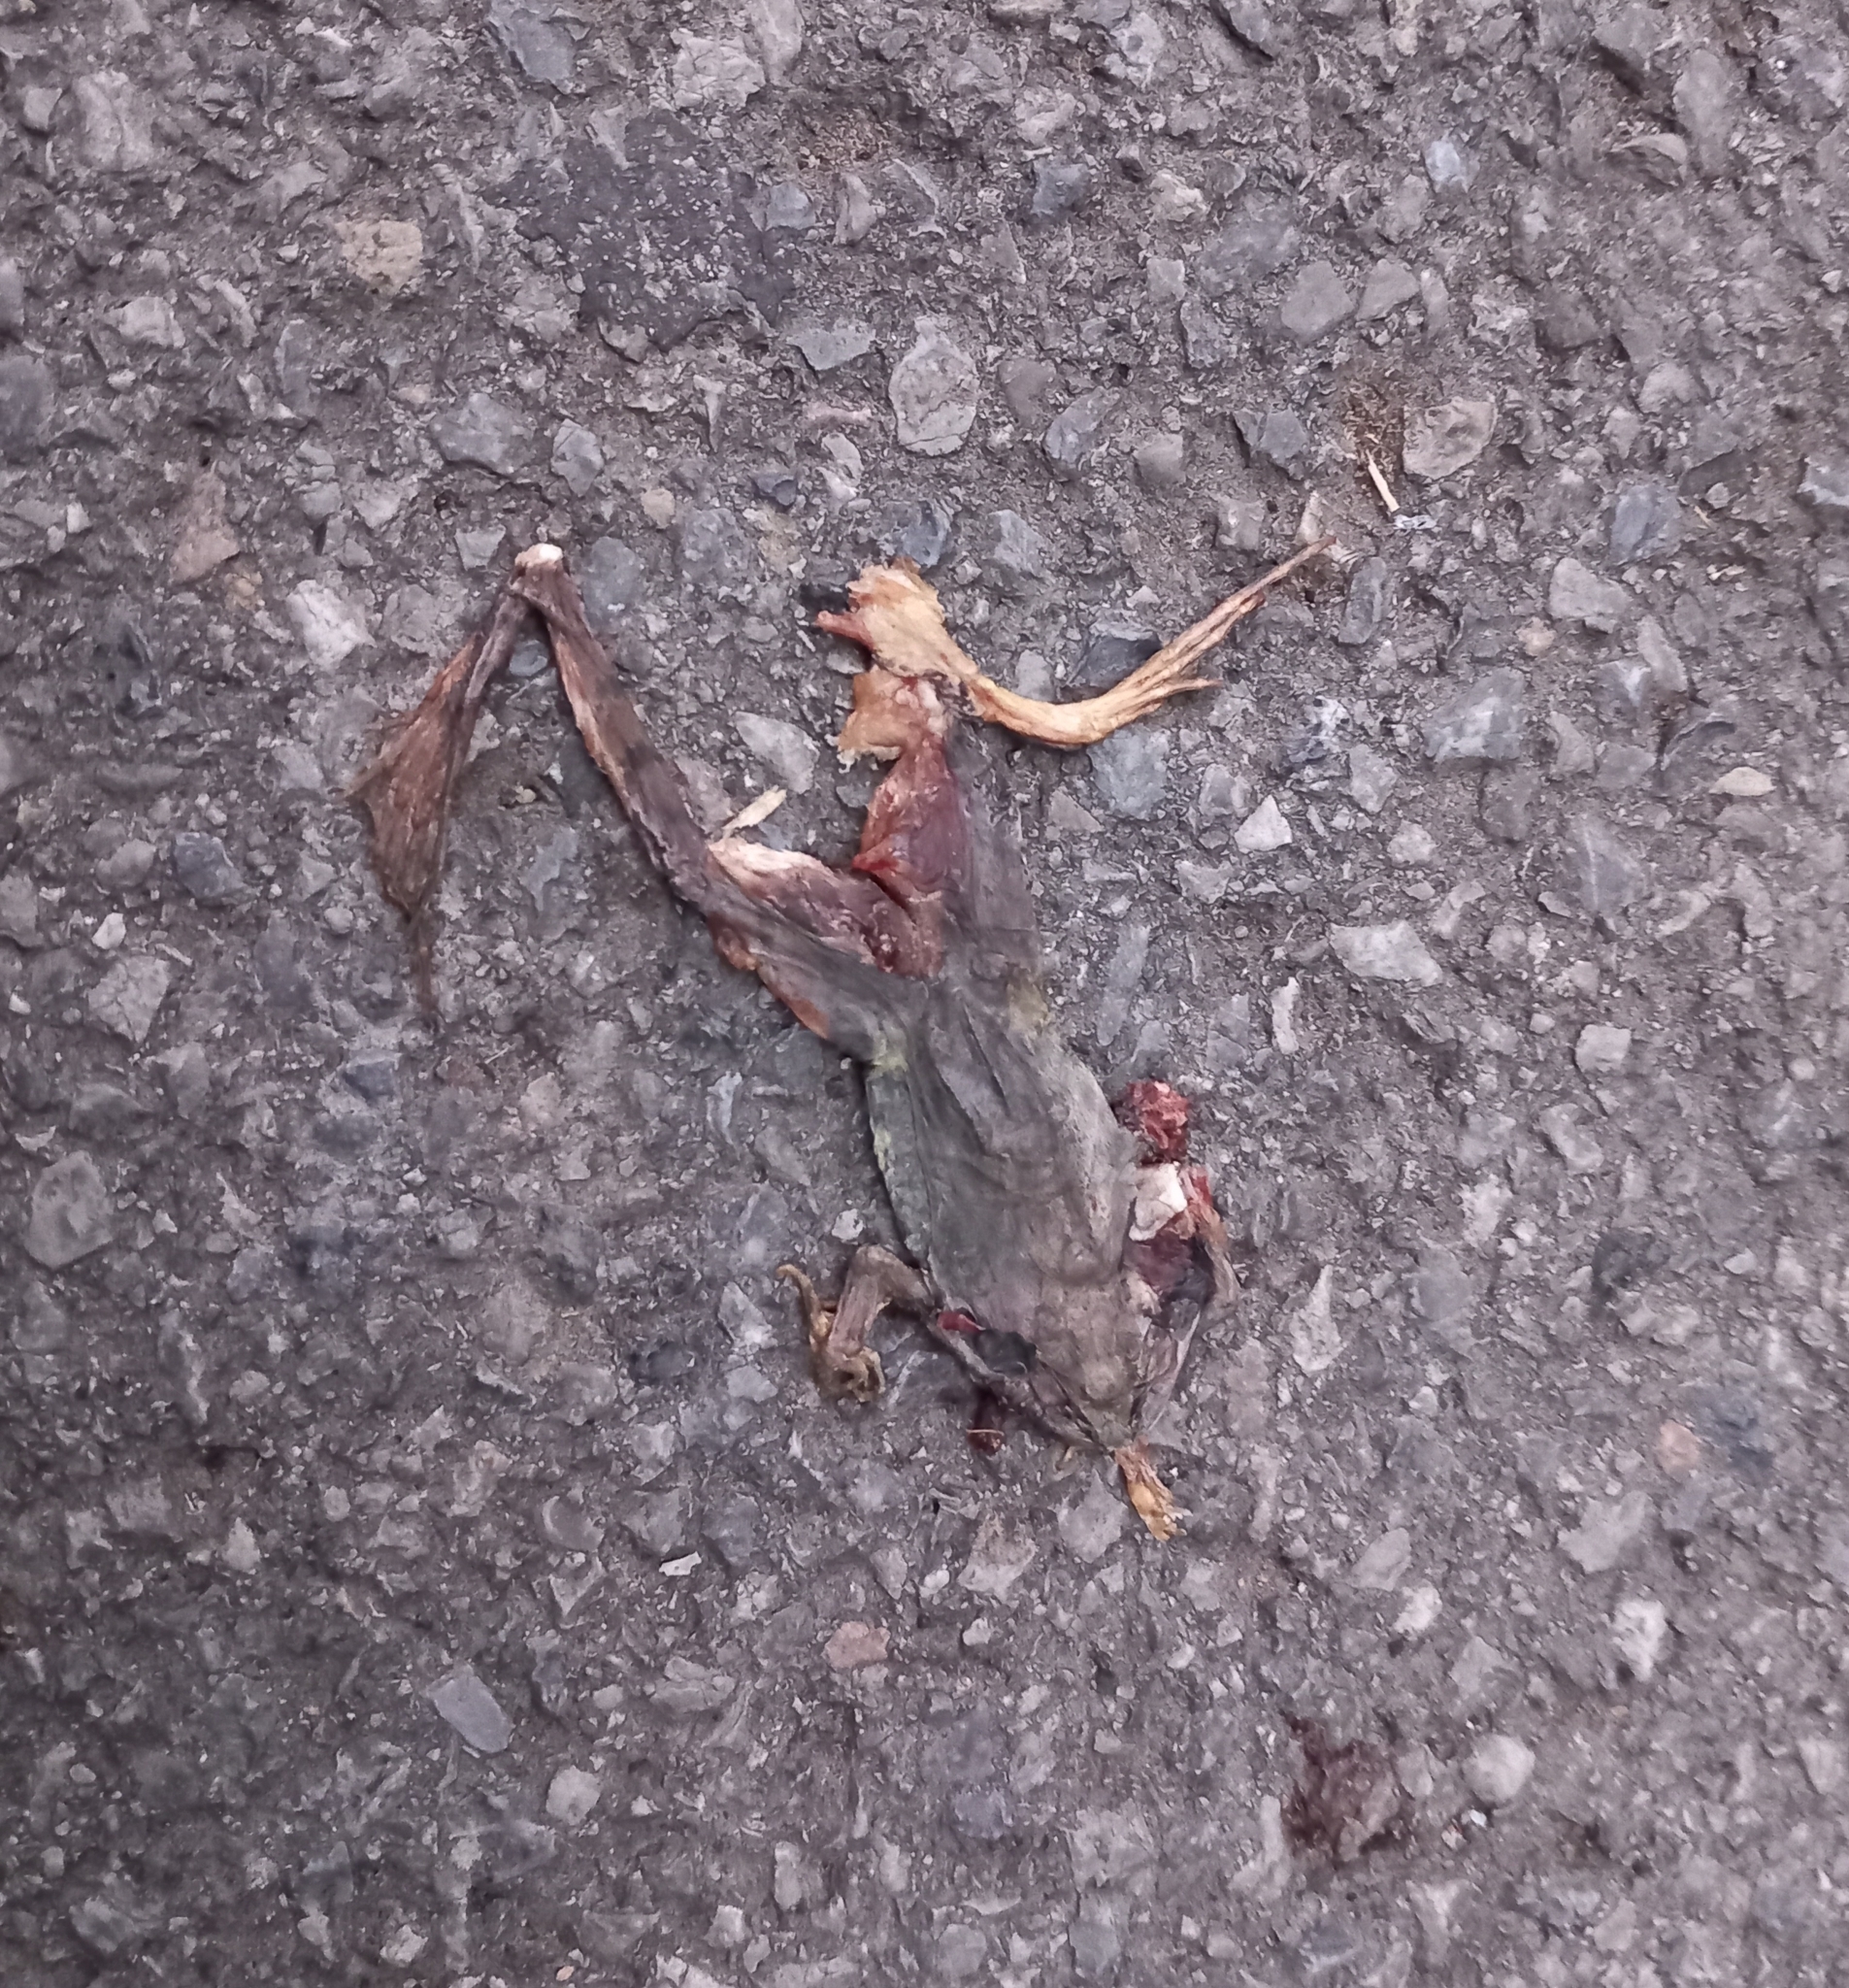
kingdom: Animalia
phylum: Chordata
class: Amphibia
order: Anura
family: Ranidae
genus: Rana
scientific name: Rana dalmatina
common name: Agile frog
